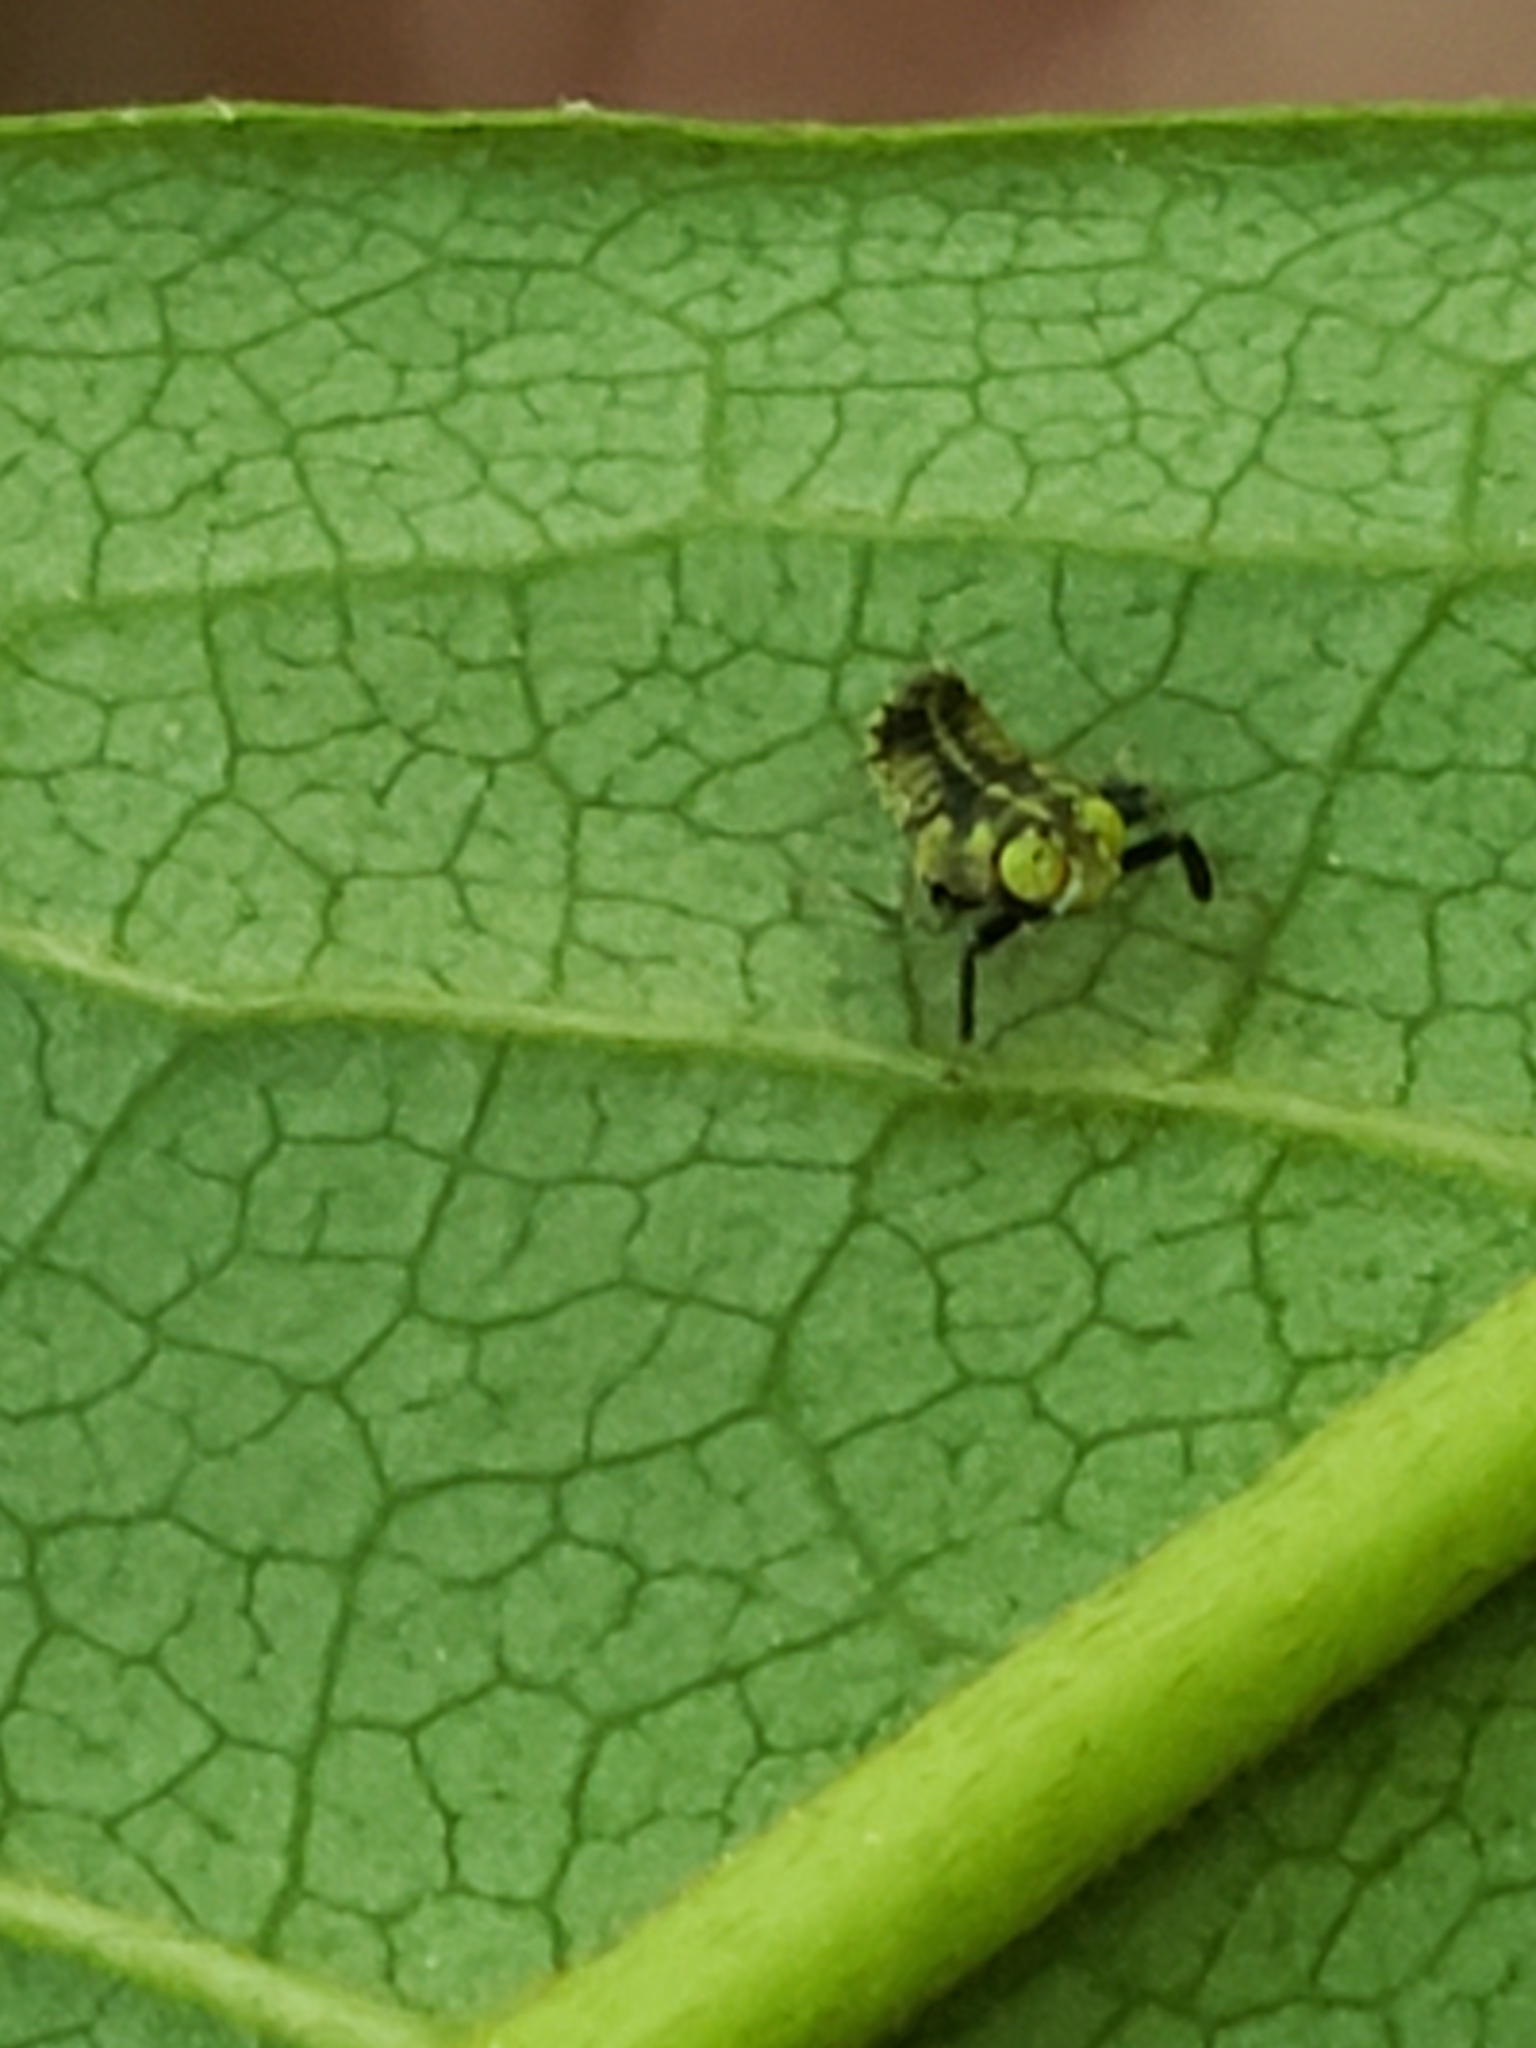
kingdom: Animalia
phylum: Arthropoda
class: Insecta
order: Hemiptera
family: Cicadellidae
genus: Jikradia
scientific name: Jikradia olitoria
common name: Coppery leafhopper
